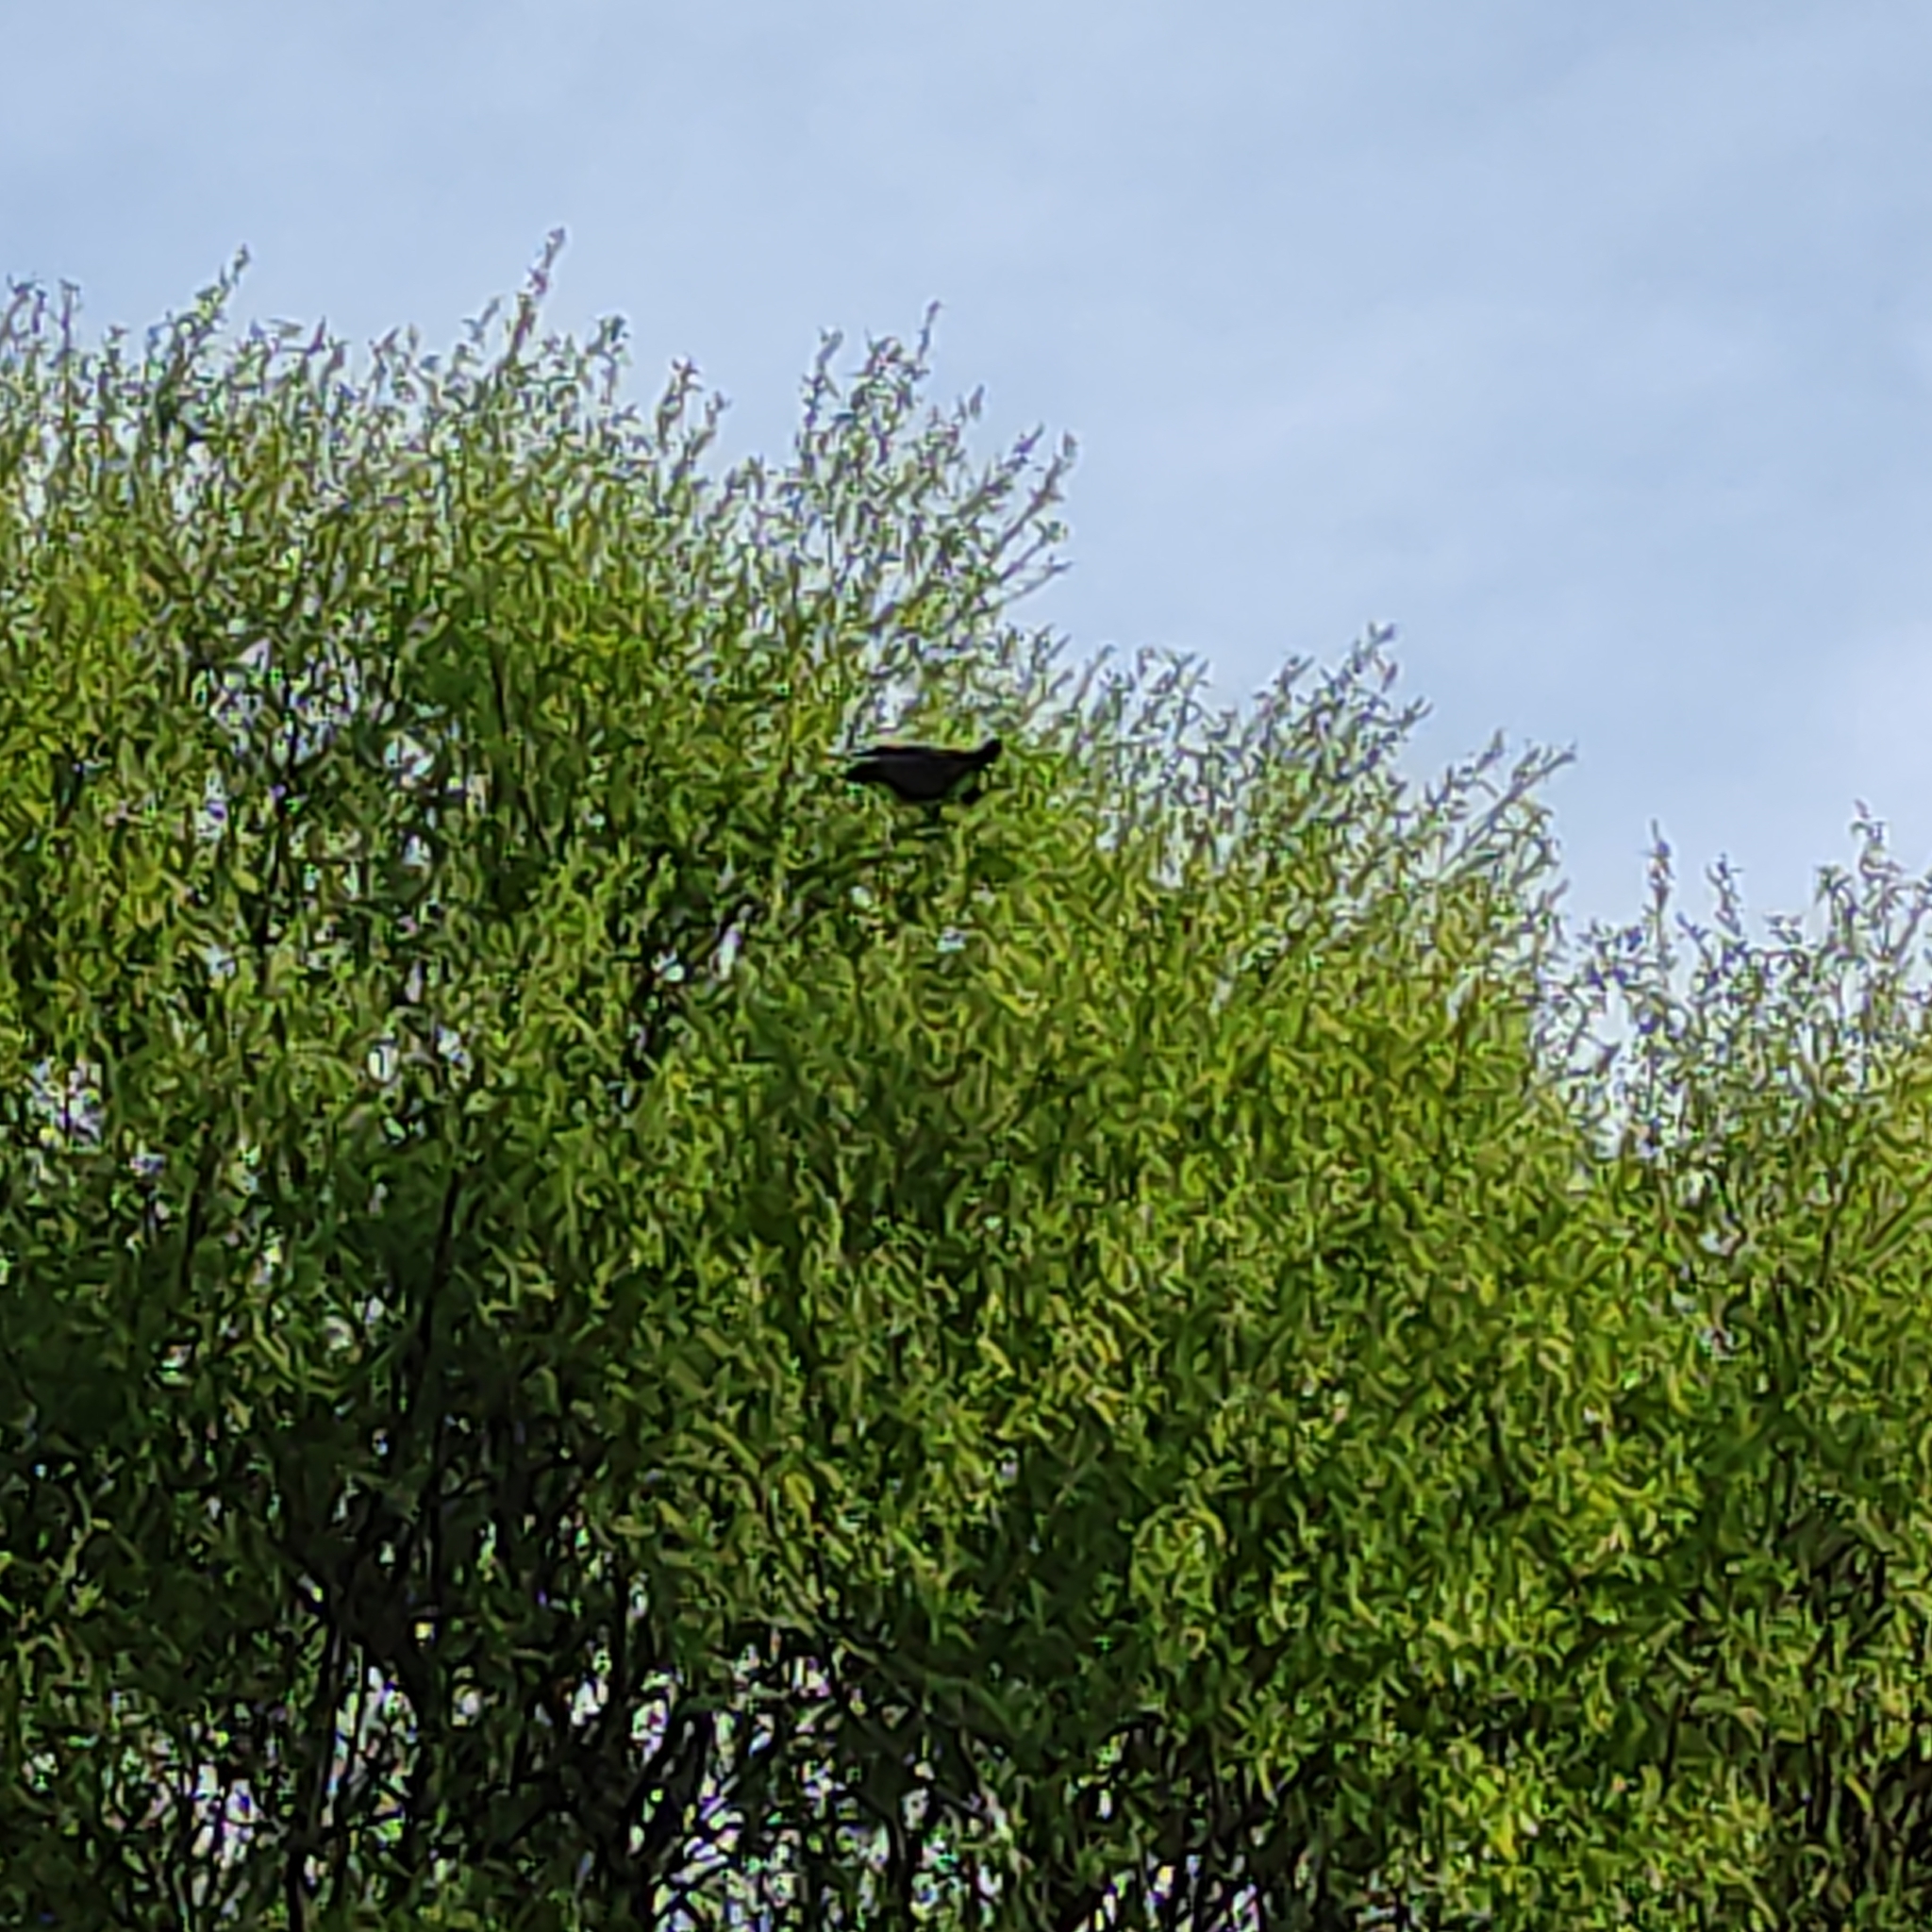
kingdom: Animalia
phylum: Chordata
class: Aves
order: Columbiformes
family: Columbidae
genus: Hemiphaga
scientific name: Hemiphaga novaeseelandiae
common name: New zealand pigeon
